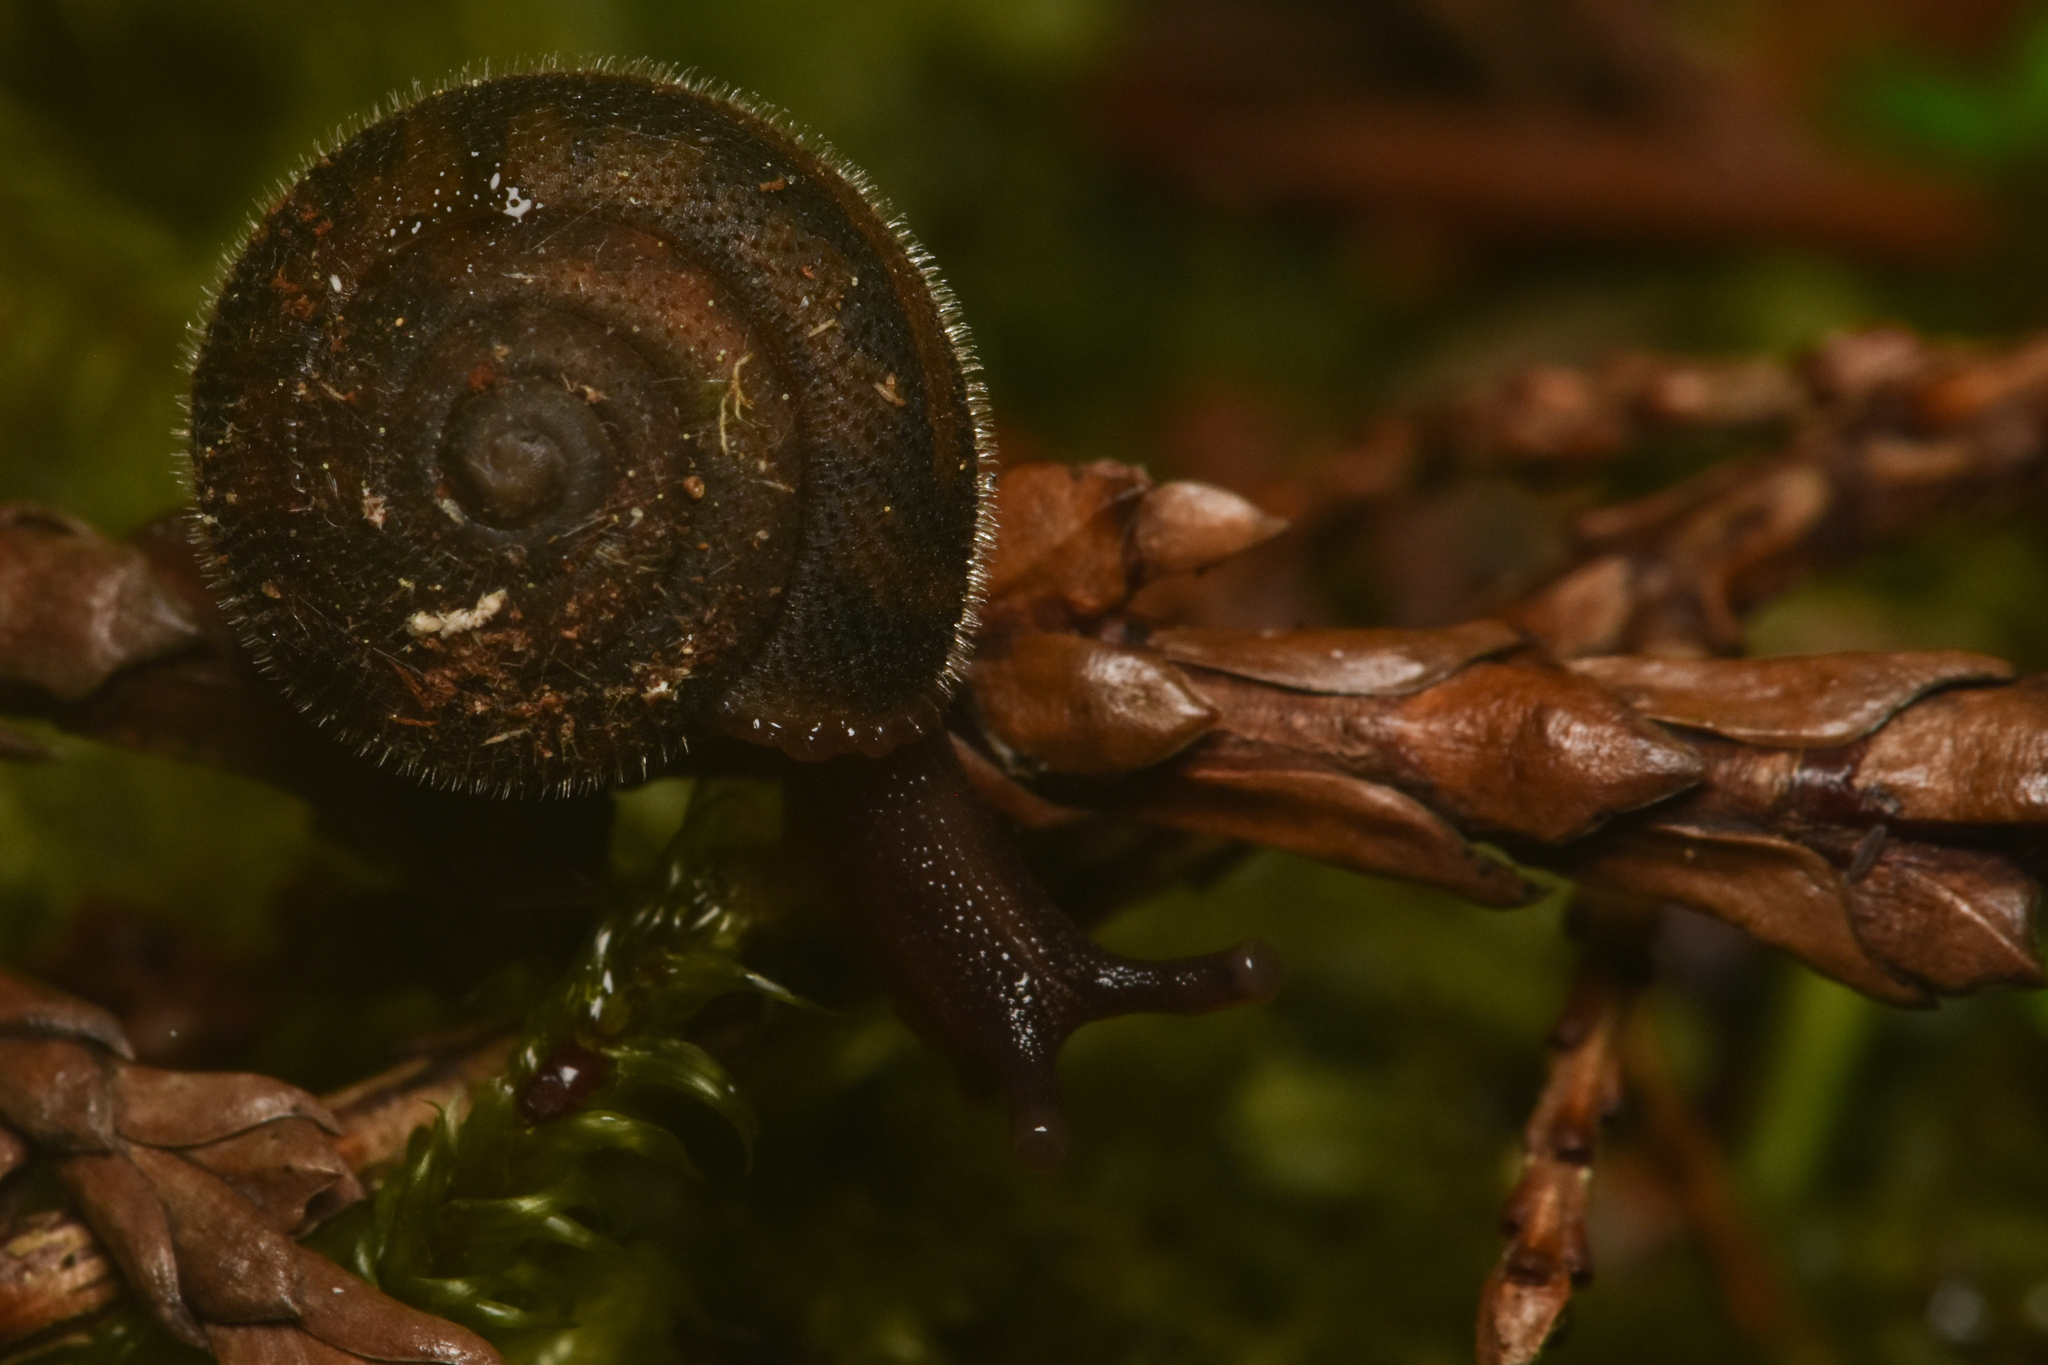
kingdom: Animalia
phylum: Mollusca
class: Gastropoda
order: Stylommatophora
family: Polygyridae
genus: Vespericola
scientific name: Vespericola columbianus
